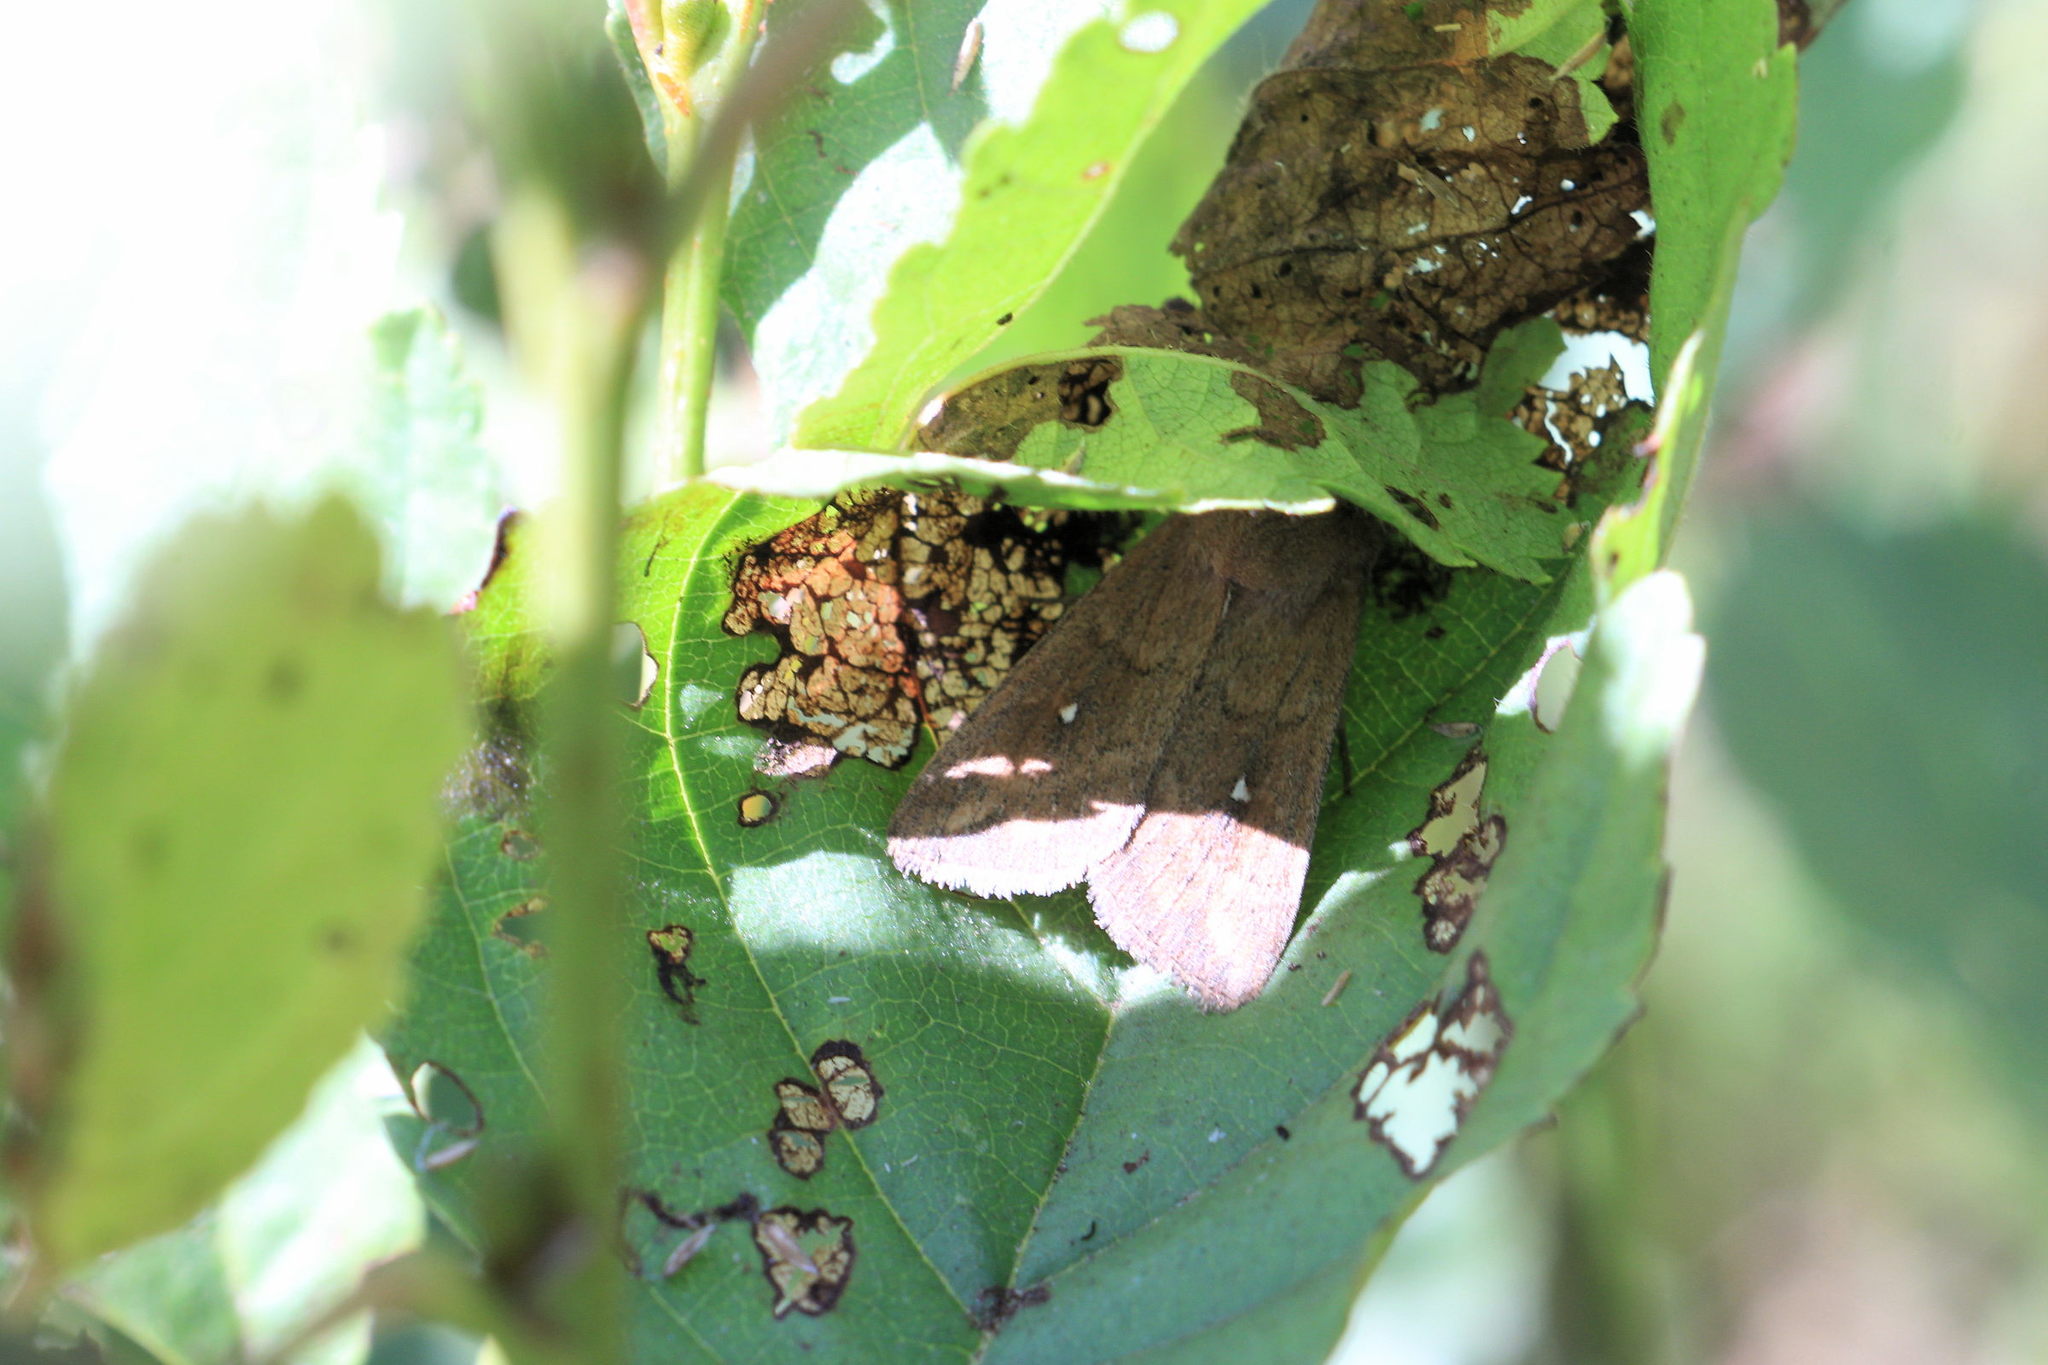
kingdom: Animalia
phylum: Arthropoda
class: Insecta
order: Lepidoptera
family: Noctuidae
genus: Mythimna
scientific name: Mythimna albipuncta
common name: White-point
